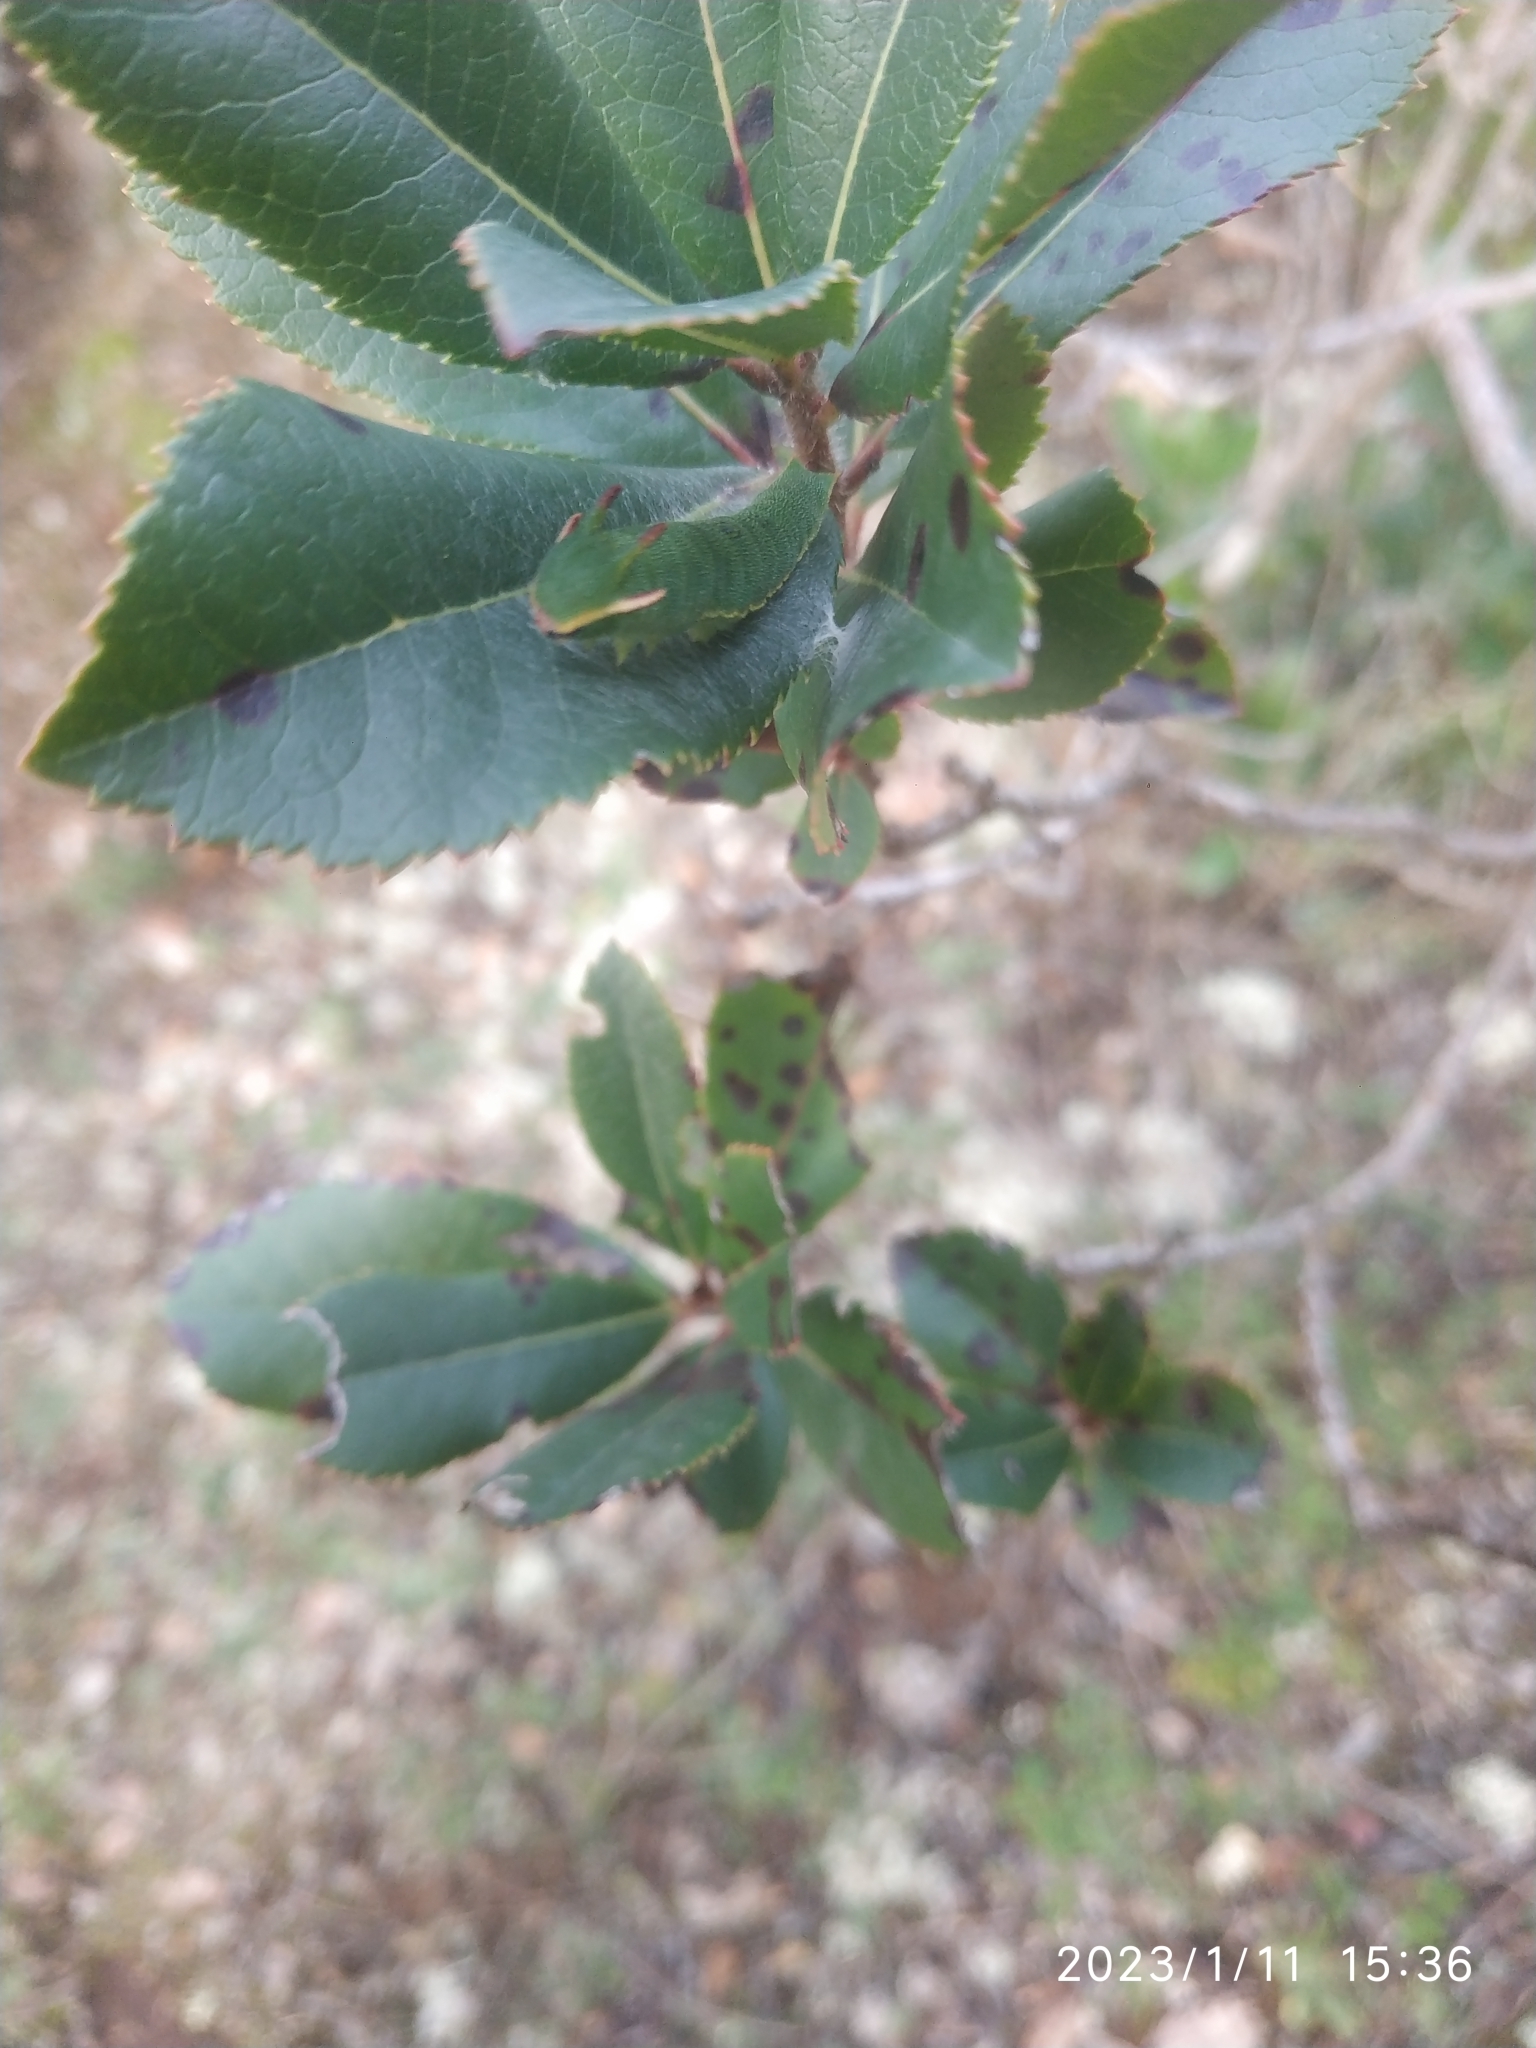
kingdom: Animalia
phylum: Arthropoda
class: Insecta
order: Lepidoptera
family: Nymphalidae
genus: Charaxes
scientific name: Charaxes jasius
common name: Two tailed pasha
